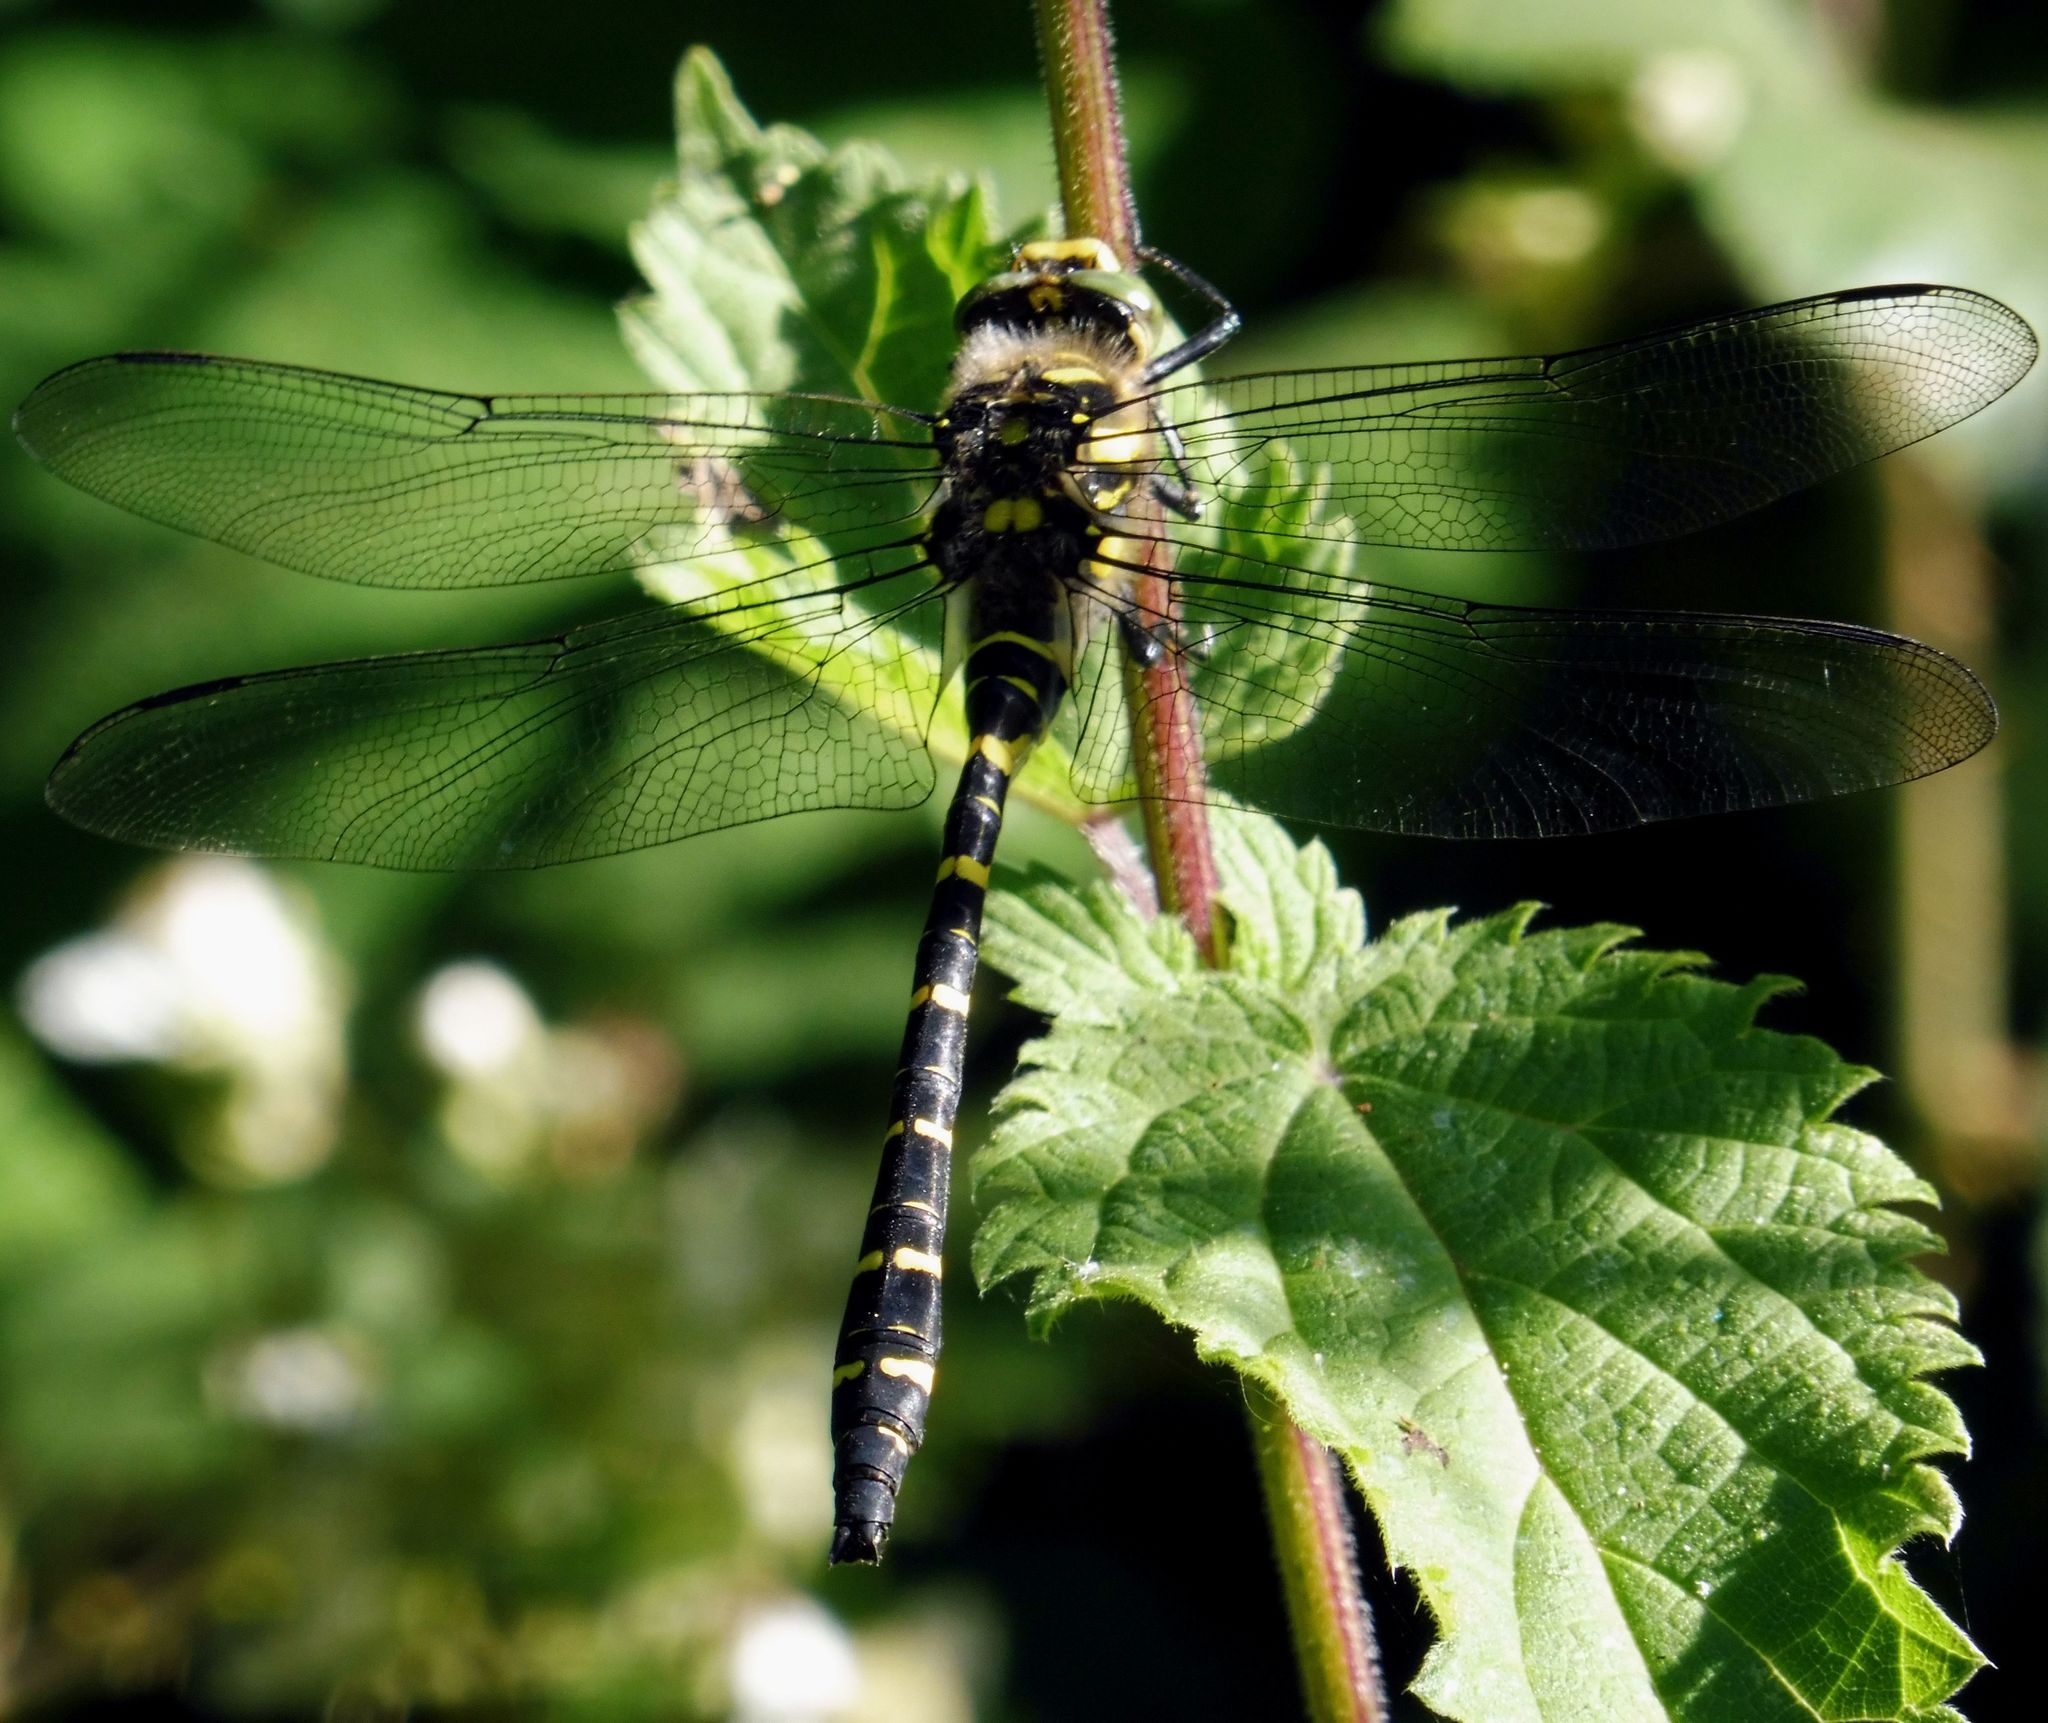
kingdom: Animalia
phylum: Arthropoda
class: Insecta
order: Odonata
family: Cordulegastridae
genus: Cordulegaster
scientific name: Cordulegaster boltonii
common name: Golden-ringed dragonfly
